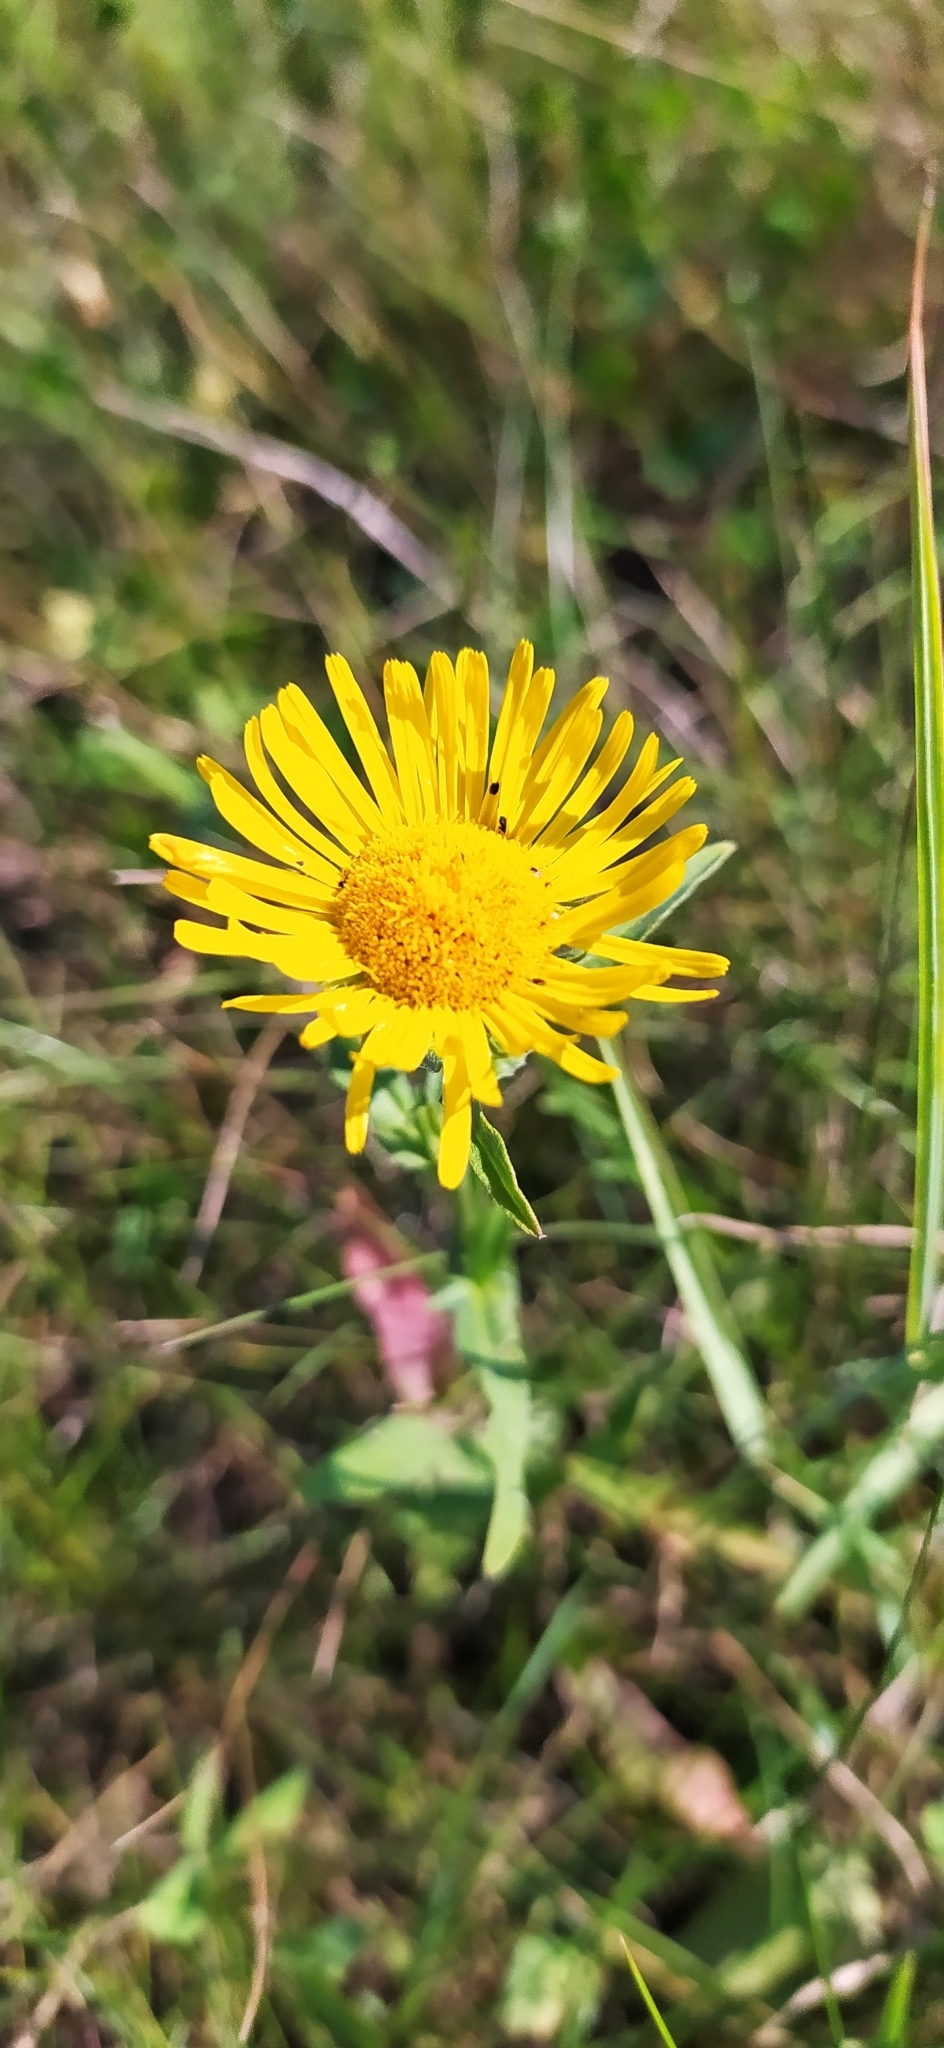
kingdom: Plantae
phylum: Tracheophyta
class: Magnoliopsida
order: Asterales
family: Asteraceae
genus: Pentanema
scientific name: Pentanema britannicum
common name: British elecampane
